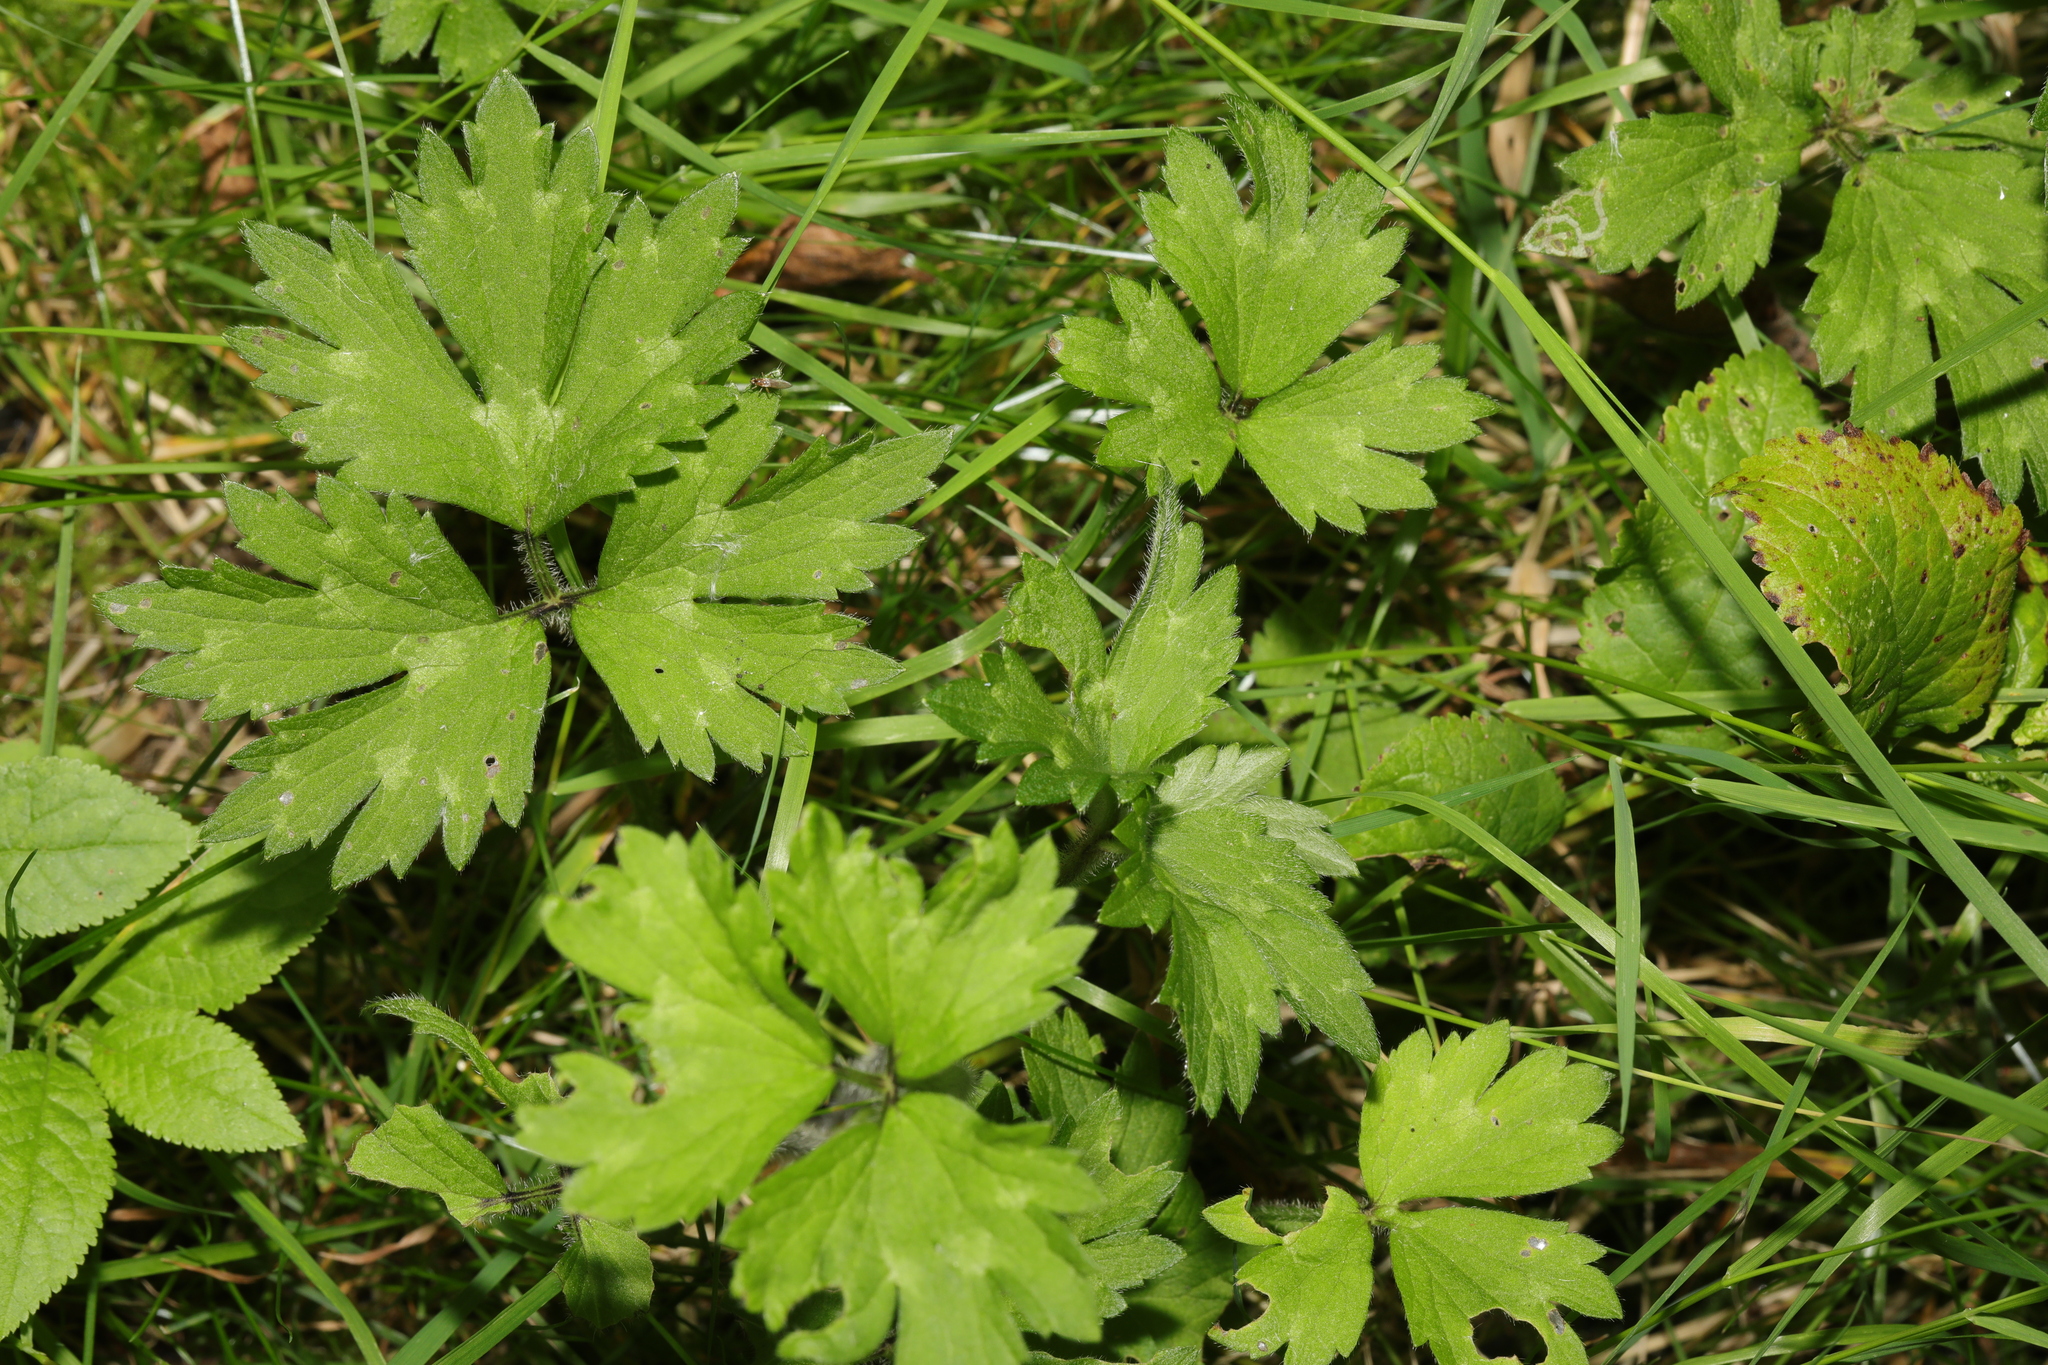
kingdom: Plantae
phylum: Tracheophyta
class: Magnoliopsida
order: Ranunculales
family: Ranunculaceae
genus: Ranunculus
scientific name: Ranunculus repens
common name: Creeping buttercup
